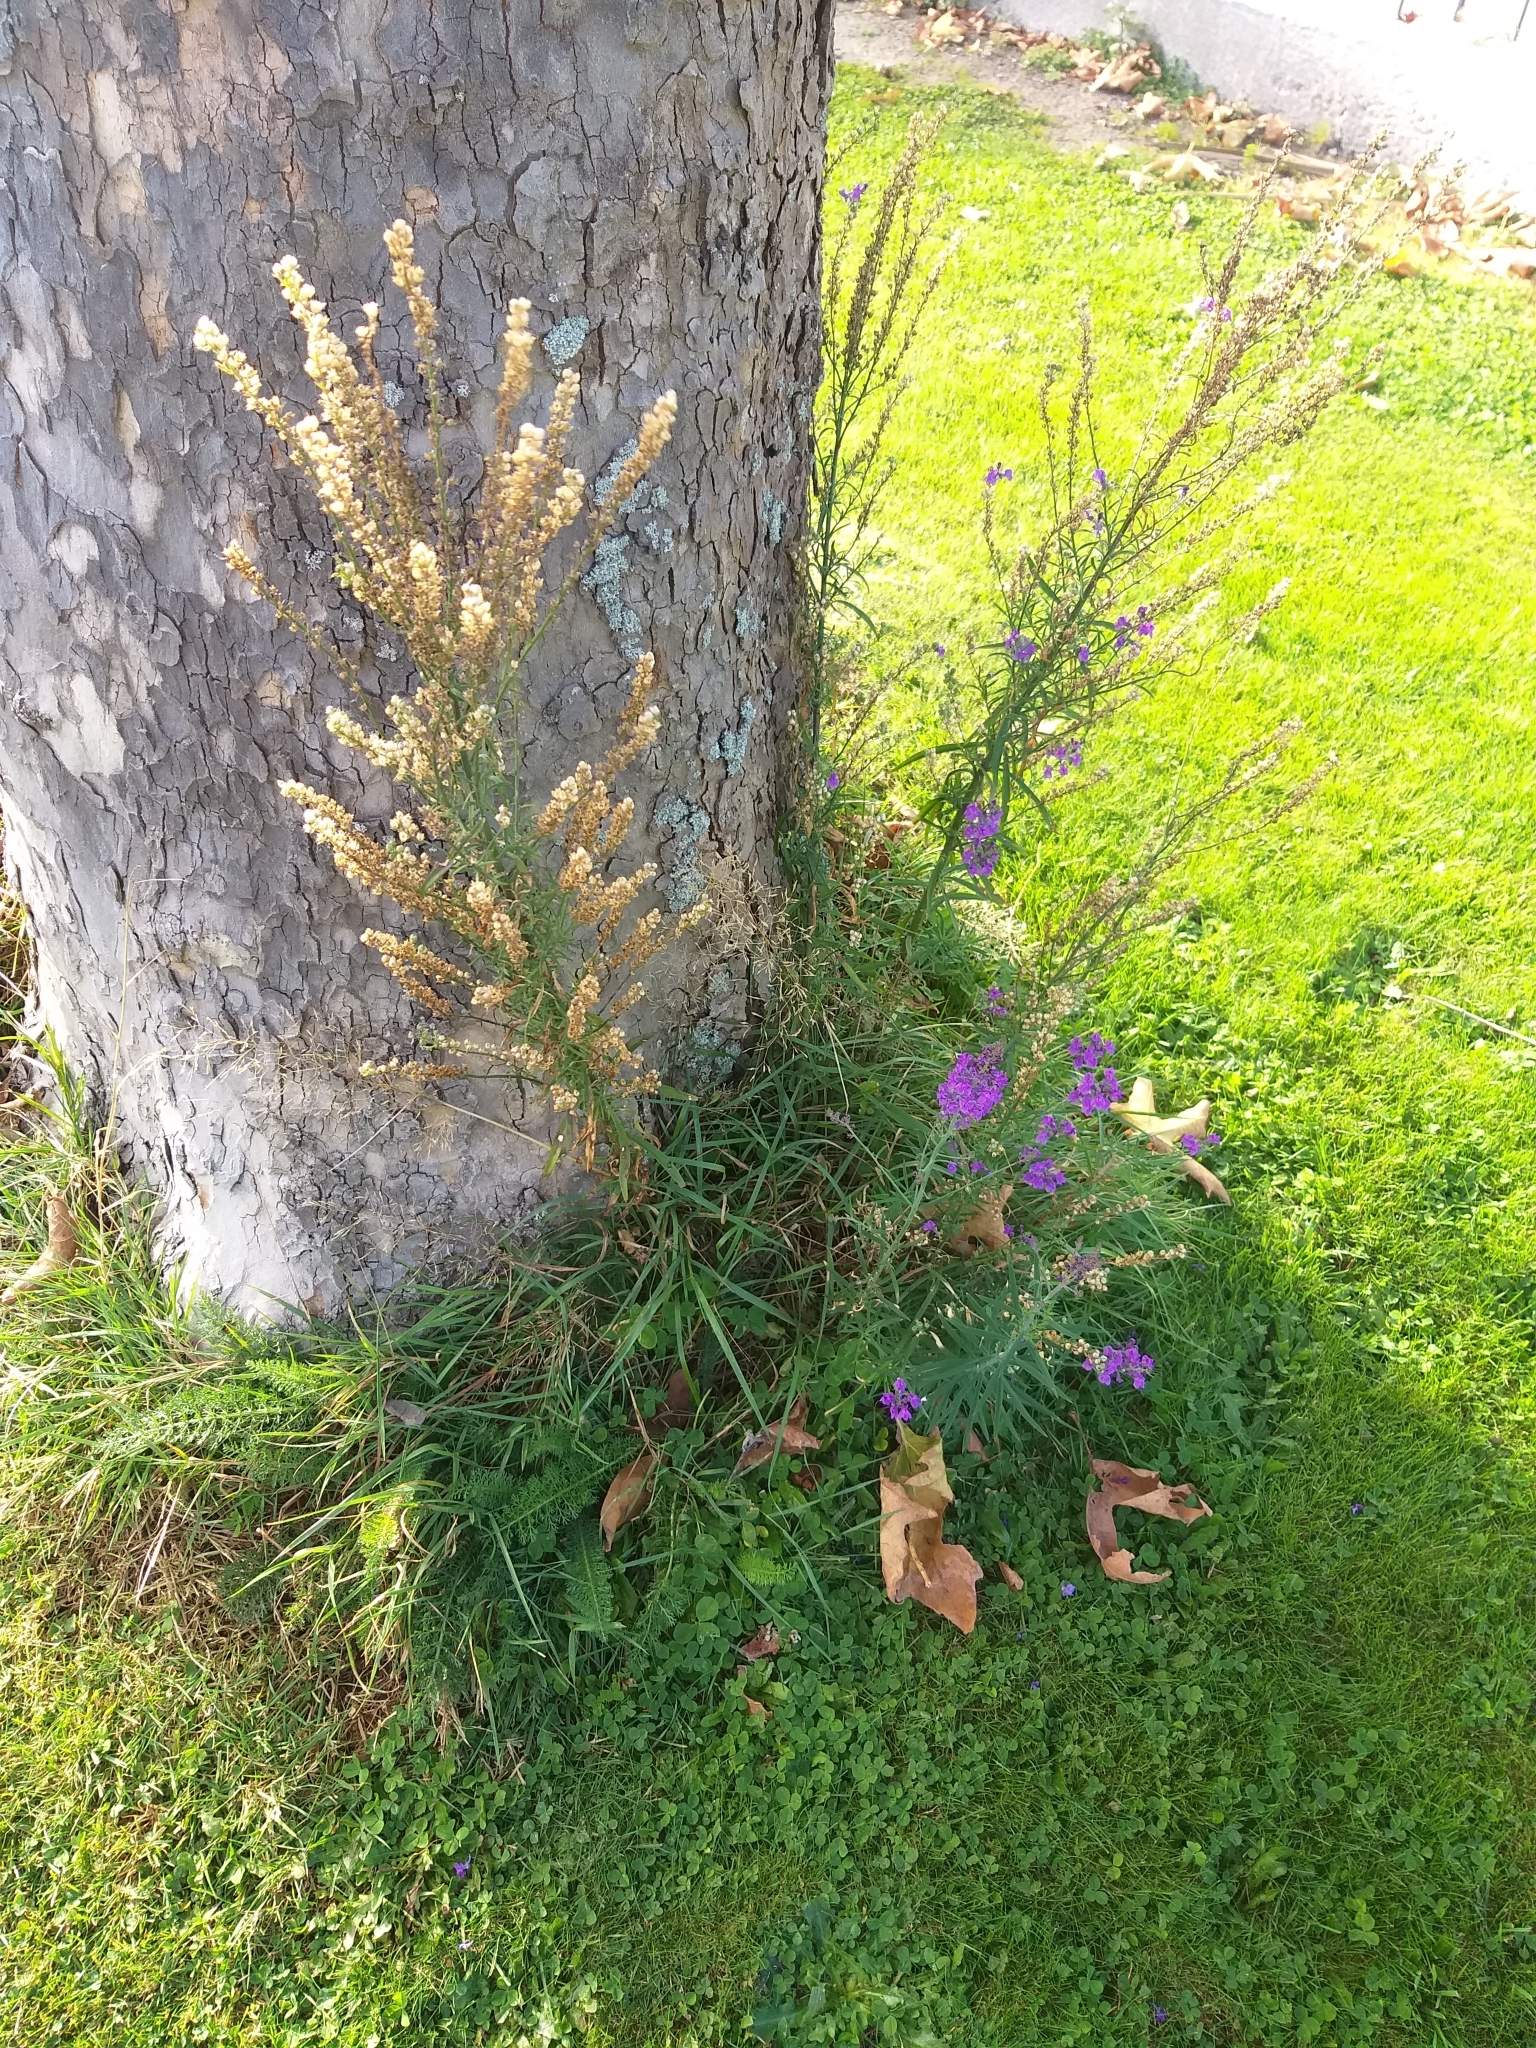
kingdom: Plantae
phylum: Tracheophyta
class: Magnoliopsida
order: Lamiales
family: Plantaginaceae
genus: Linaria
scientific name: Linaria purpurea
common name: Purple toadflax
